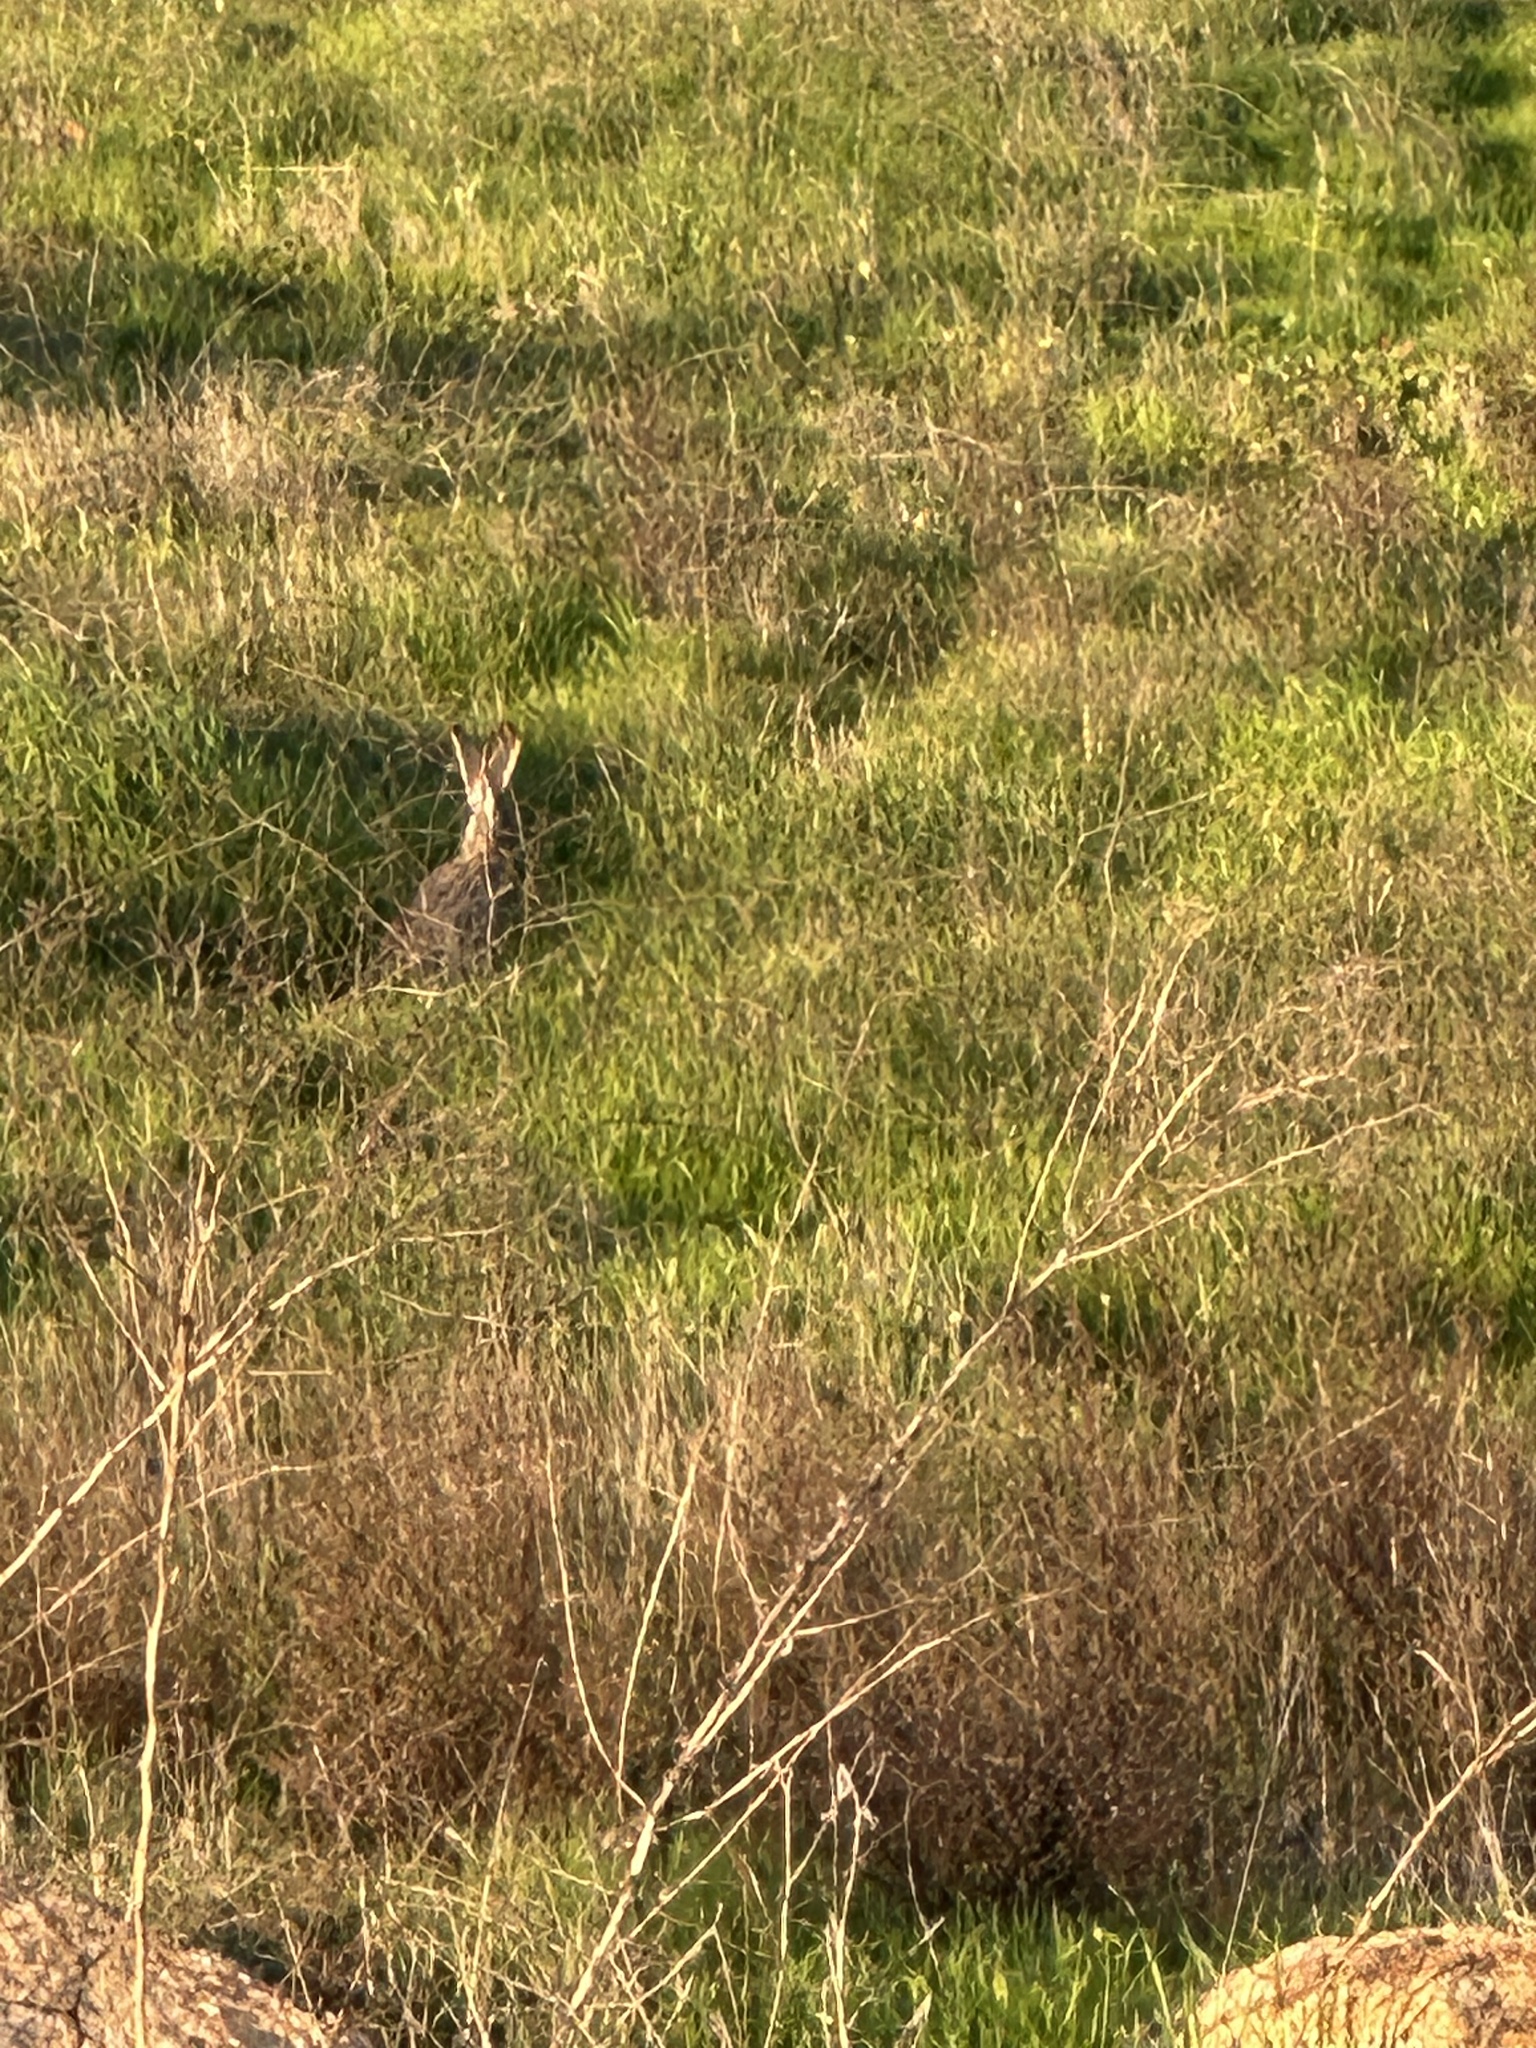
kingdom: Animalia
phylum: Chordata
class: Mammalia
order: Lagomorpha
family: Leporidae
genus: Lepus
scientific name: Lepus californicus
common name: Black-tailed jackrabbit
